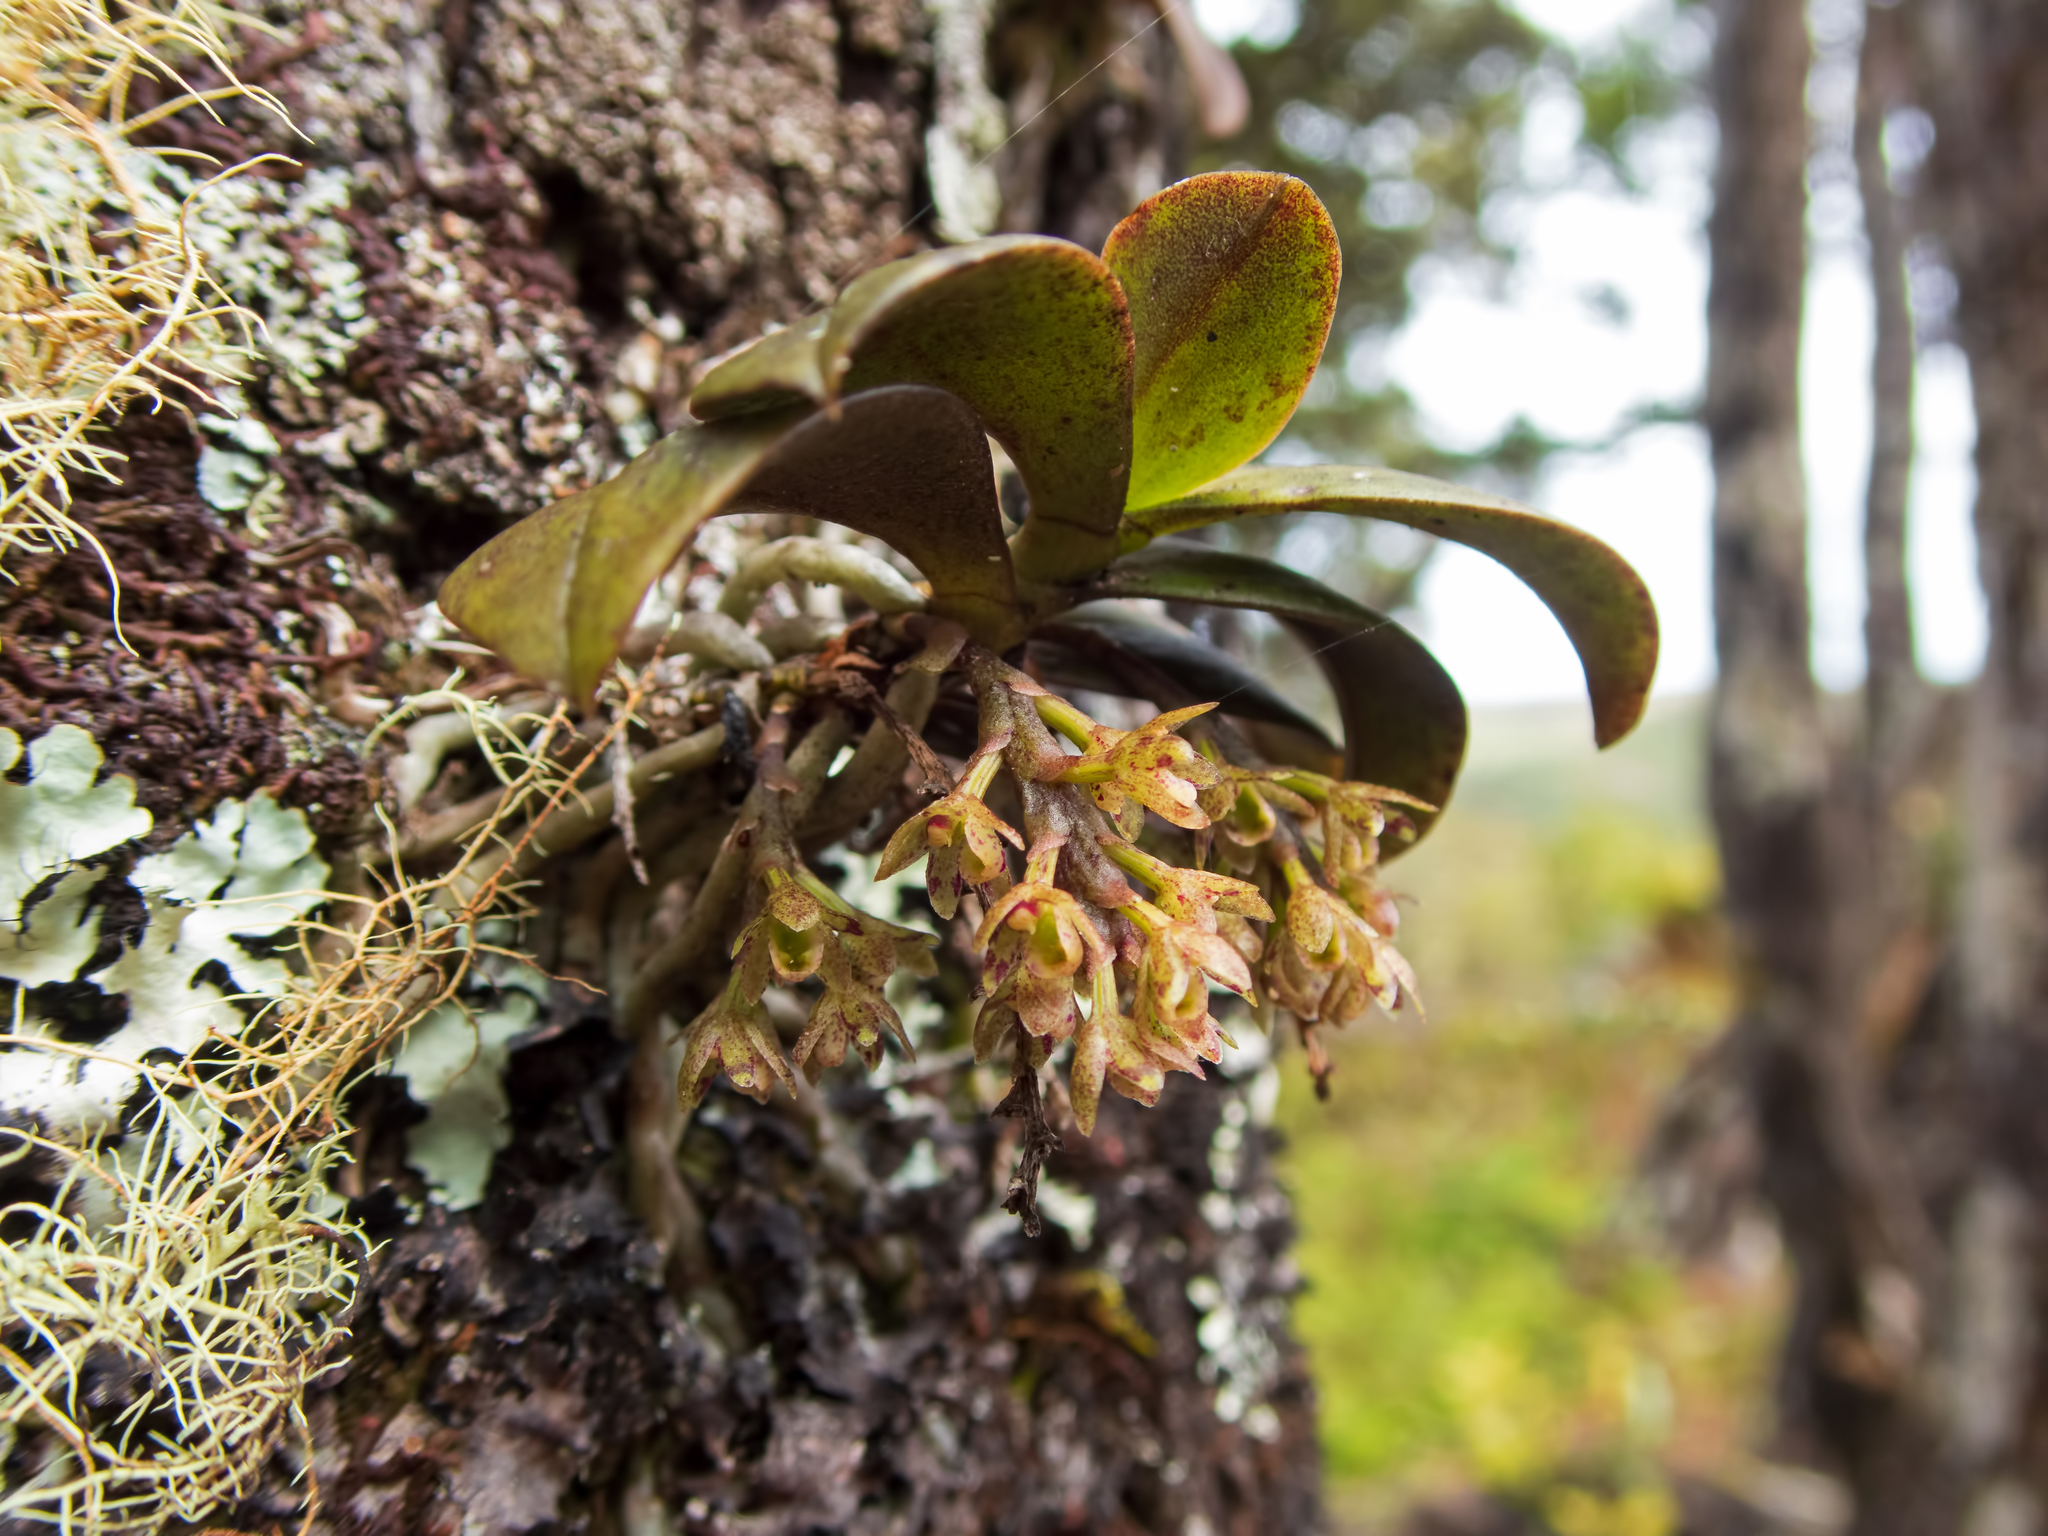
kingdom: Plantae
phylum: Tracheophyta
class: Liliopsida
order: Asparagales
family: Orchidaceae
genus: Drymoanthus
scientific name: Drymoanthus adversus
